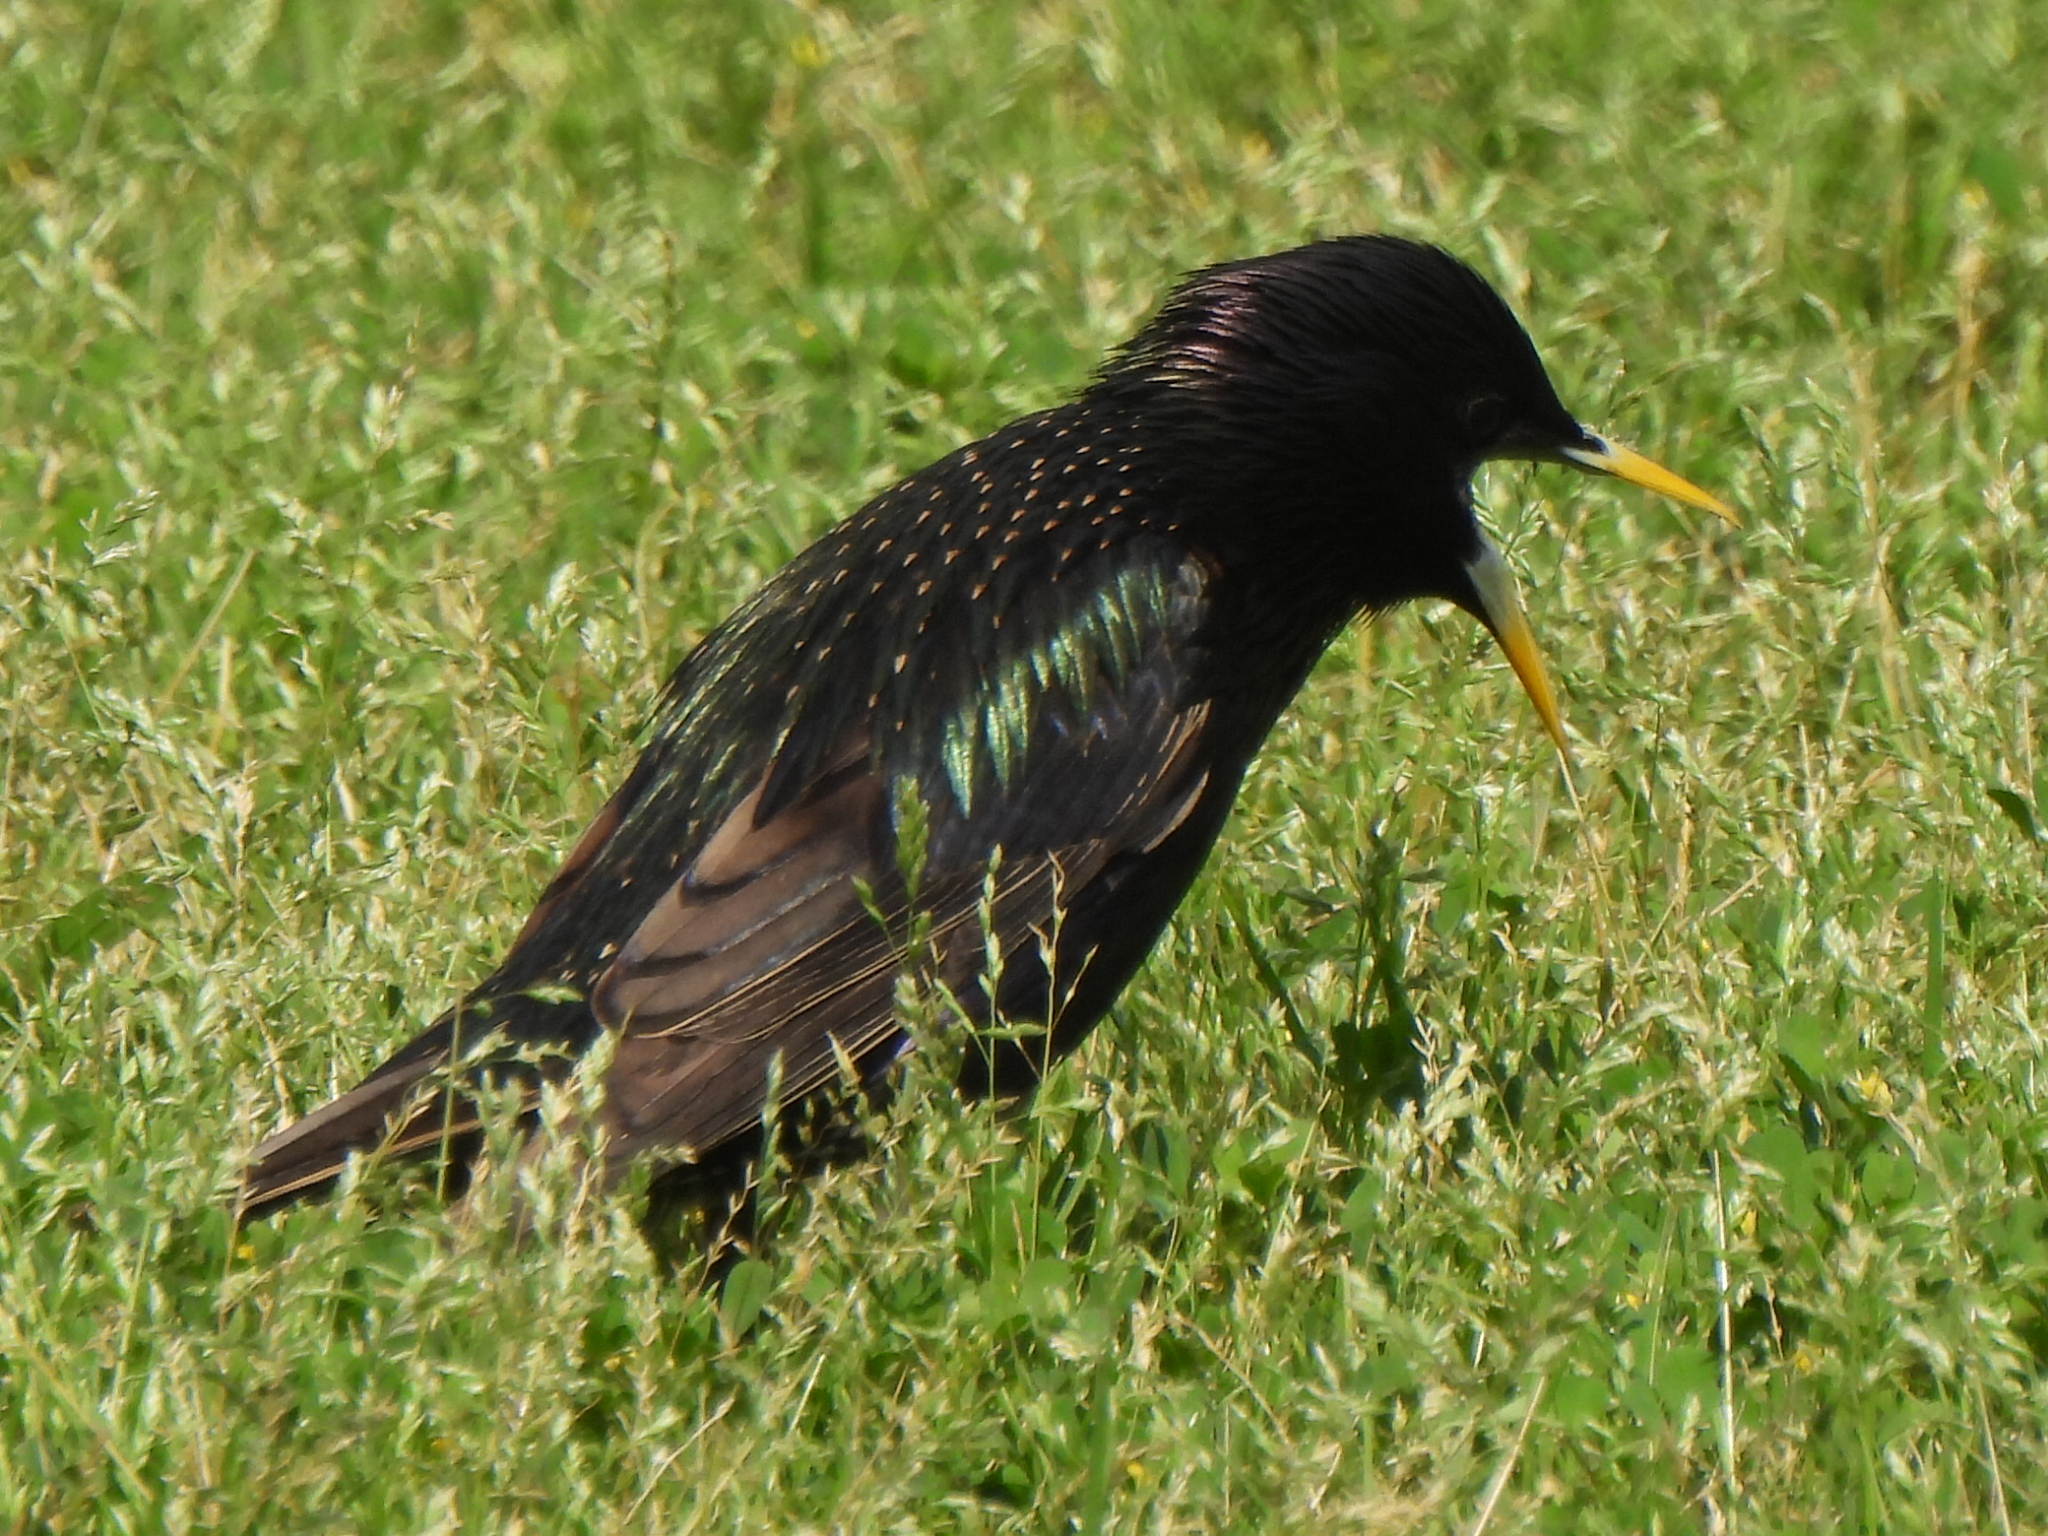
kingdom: Animalia
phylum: Chordata
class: Aves
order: Passeriformes
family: Sturnidae
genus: Sturnus
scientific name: Sturnus vulgaris
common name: Common starling
